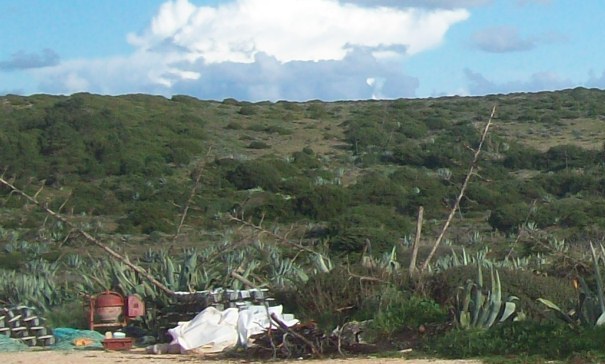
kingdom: Plantae
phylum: Tracheophyta
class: Liliopsida
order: Asparagales
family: Asparagaceae
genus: Agave
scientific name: Agave americana
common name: Centuryplant
